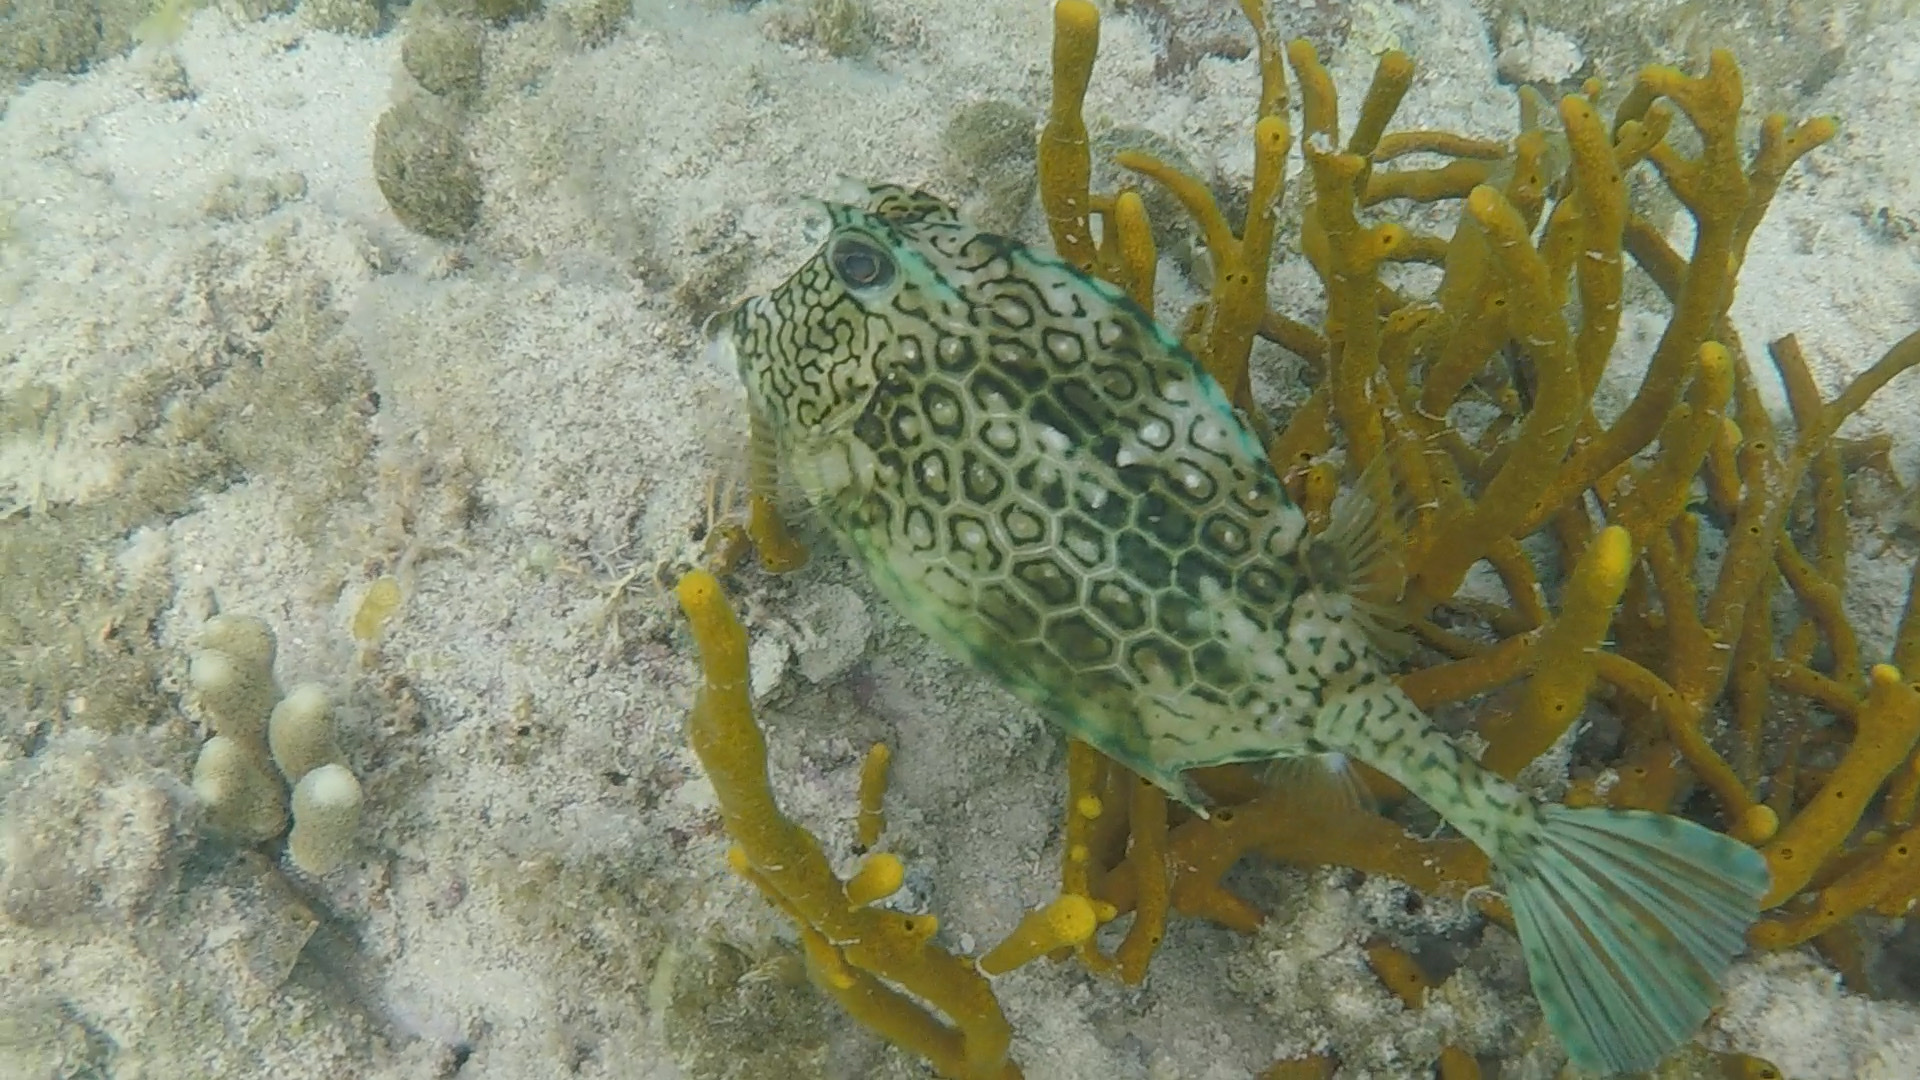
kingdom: Animalia
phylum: Chordata
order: Tetraodontiformes
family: Ostraciidae
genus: Acanthostracion
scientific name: Acanthostracion polygonius
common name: Honeycomb cowfish
